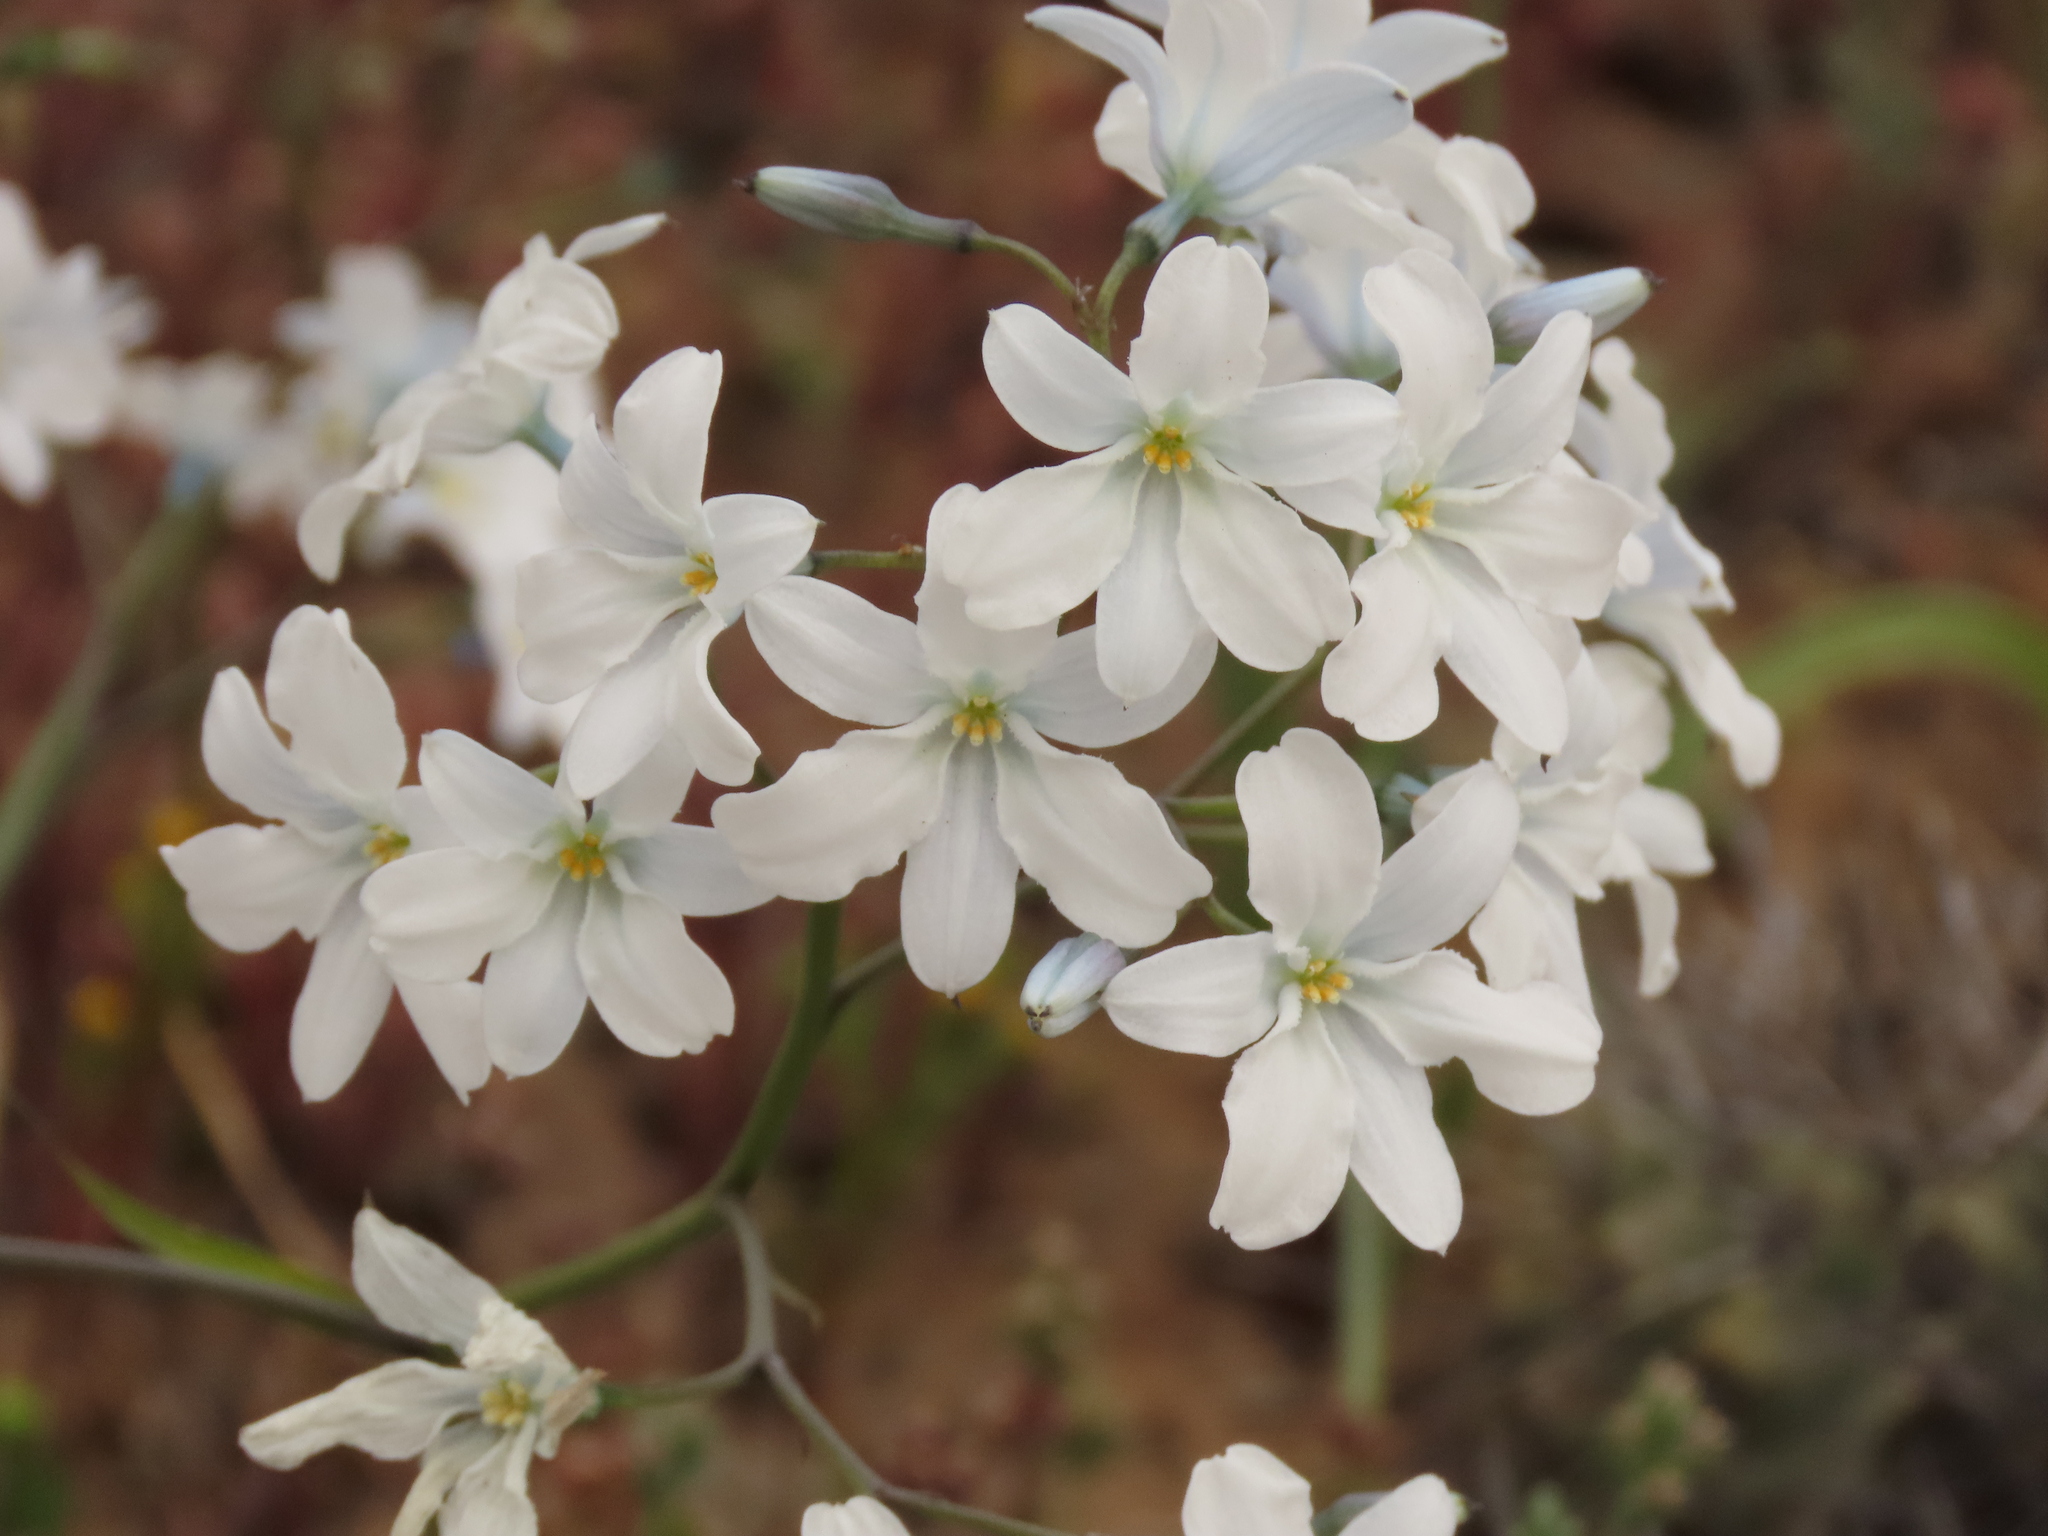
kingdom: Plantae
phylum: Tracheophyta
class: Liliopsida
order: Asparagales
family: Tecophilaeaceae
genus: Zephyra
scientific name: Zephyra elegans
